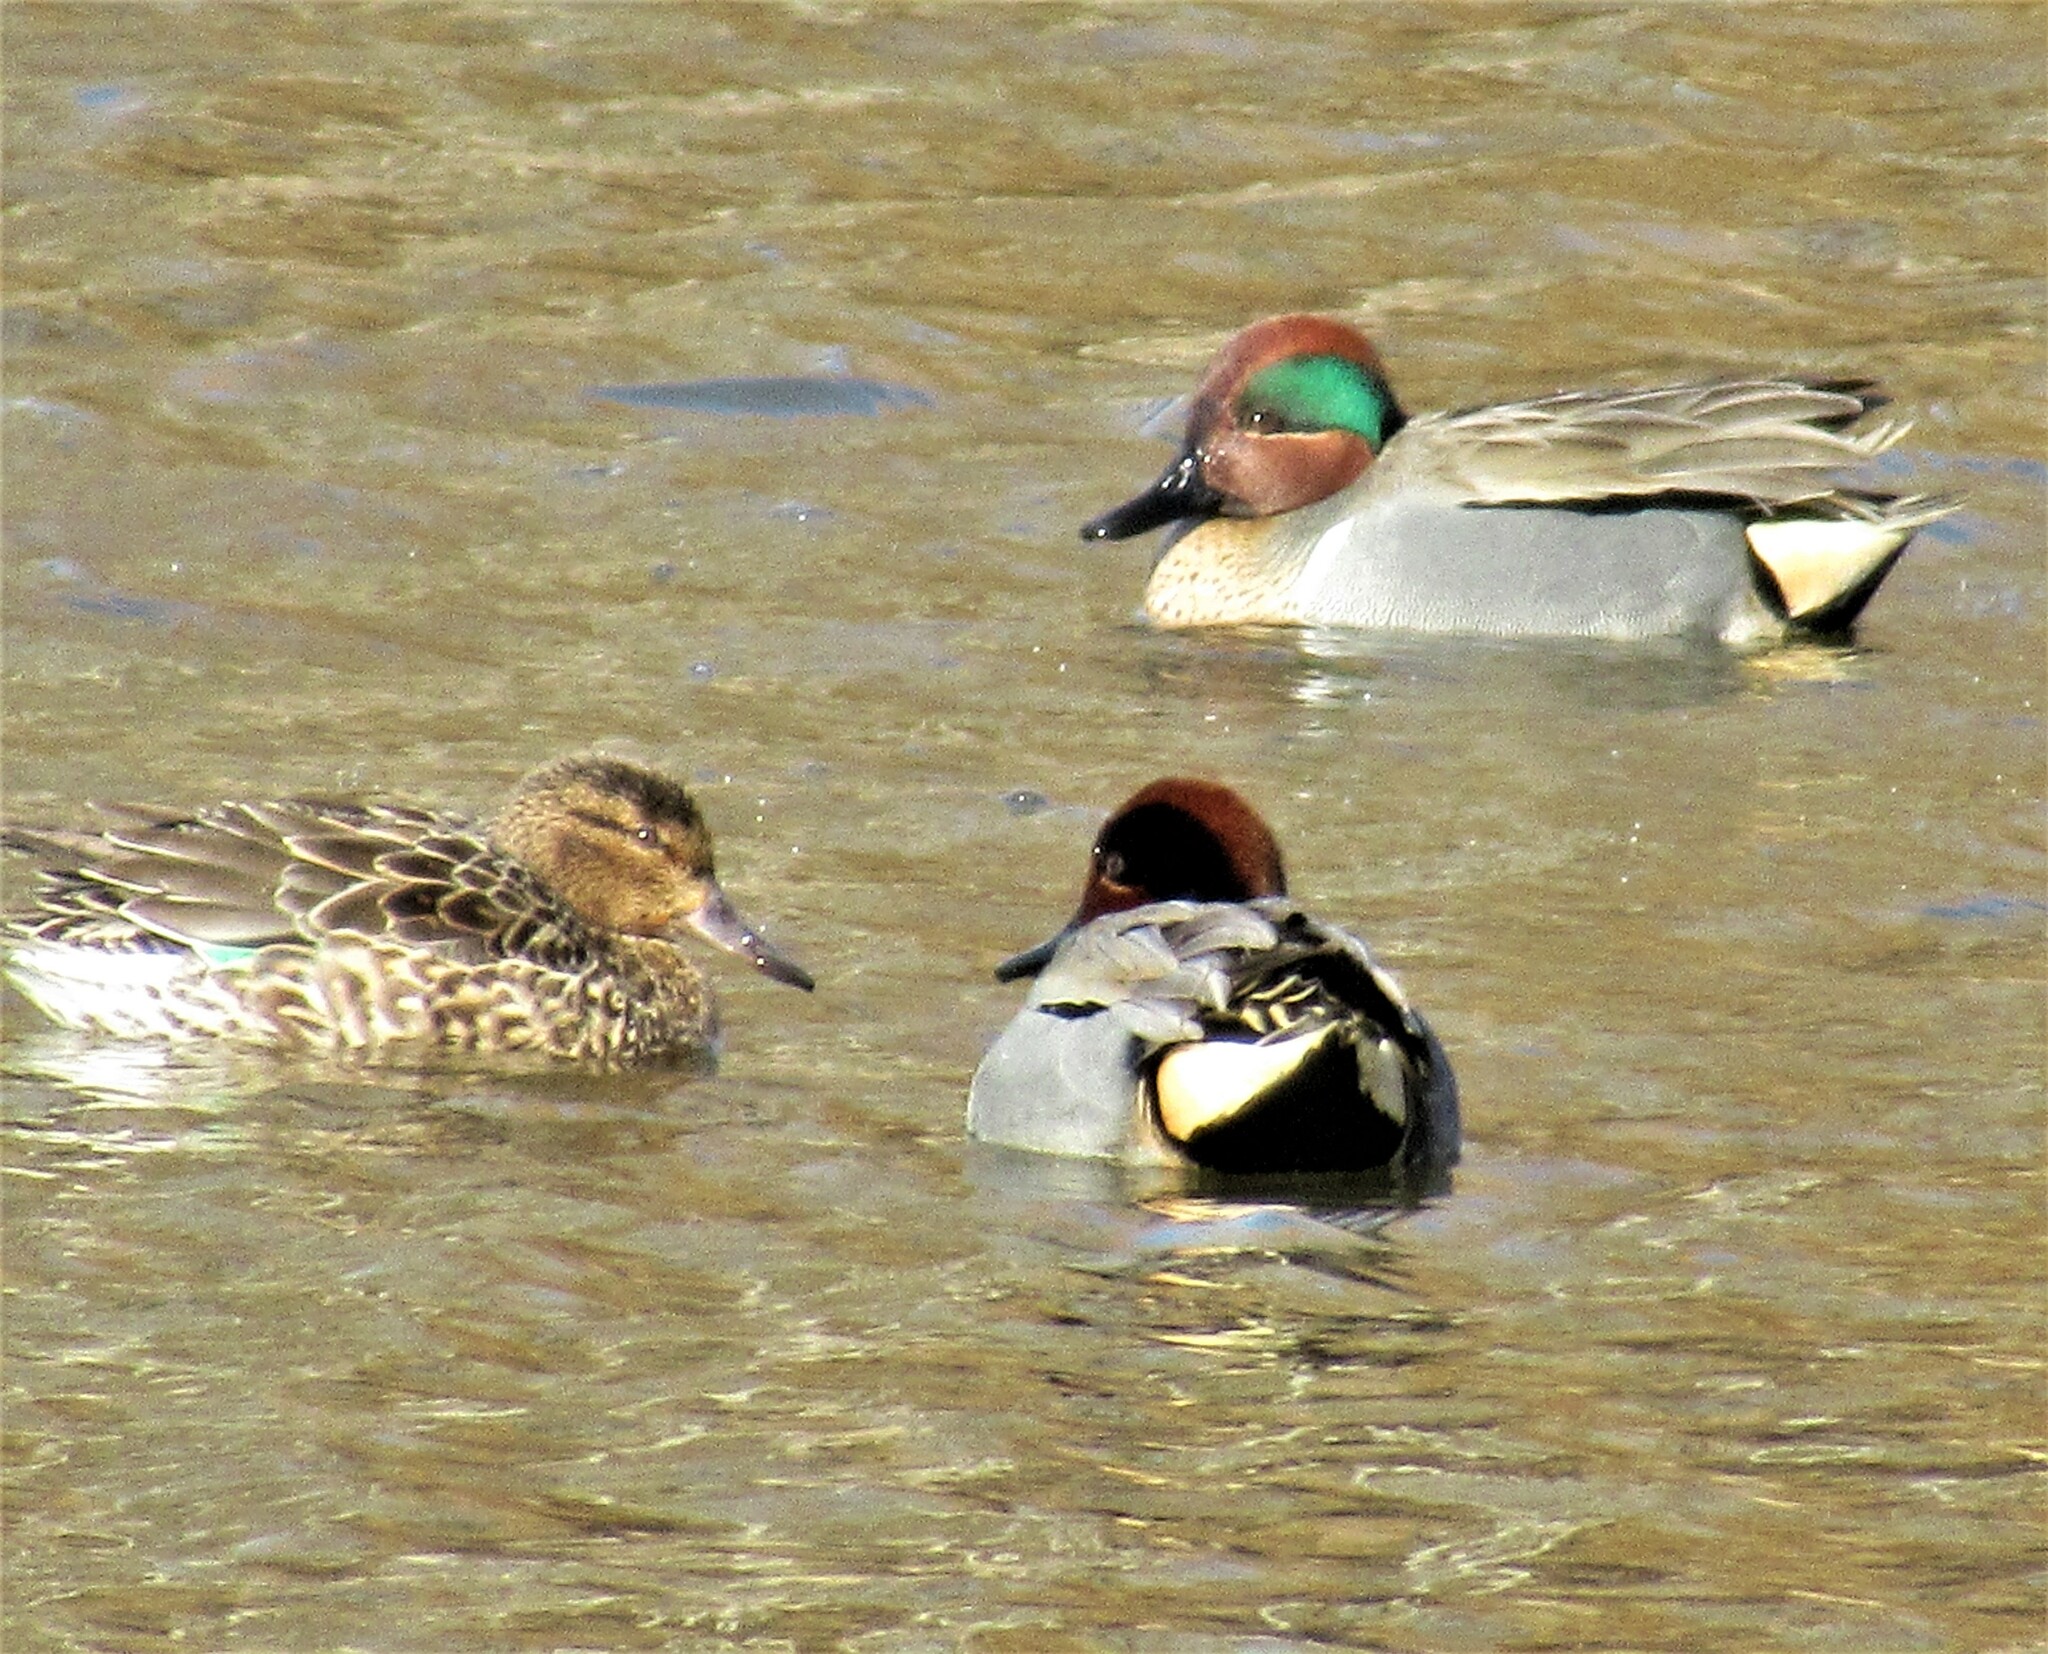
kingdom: Animalia
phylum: Chordata
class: Aves
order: Anseriformes
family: Anatidae
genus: Anas
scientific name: Anas crecca
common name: Eurasian teal
